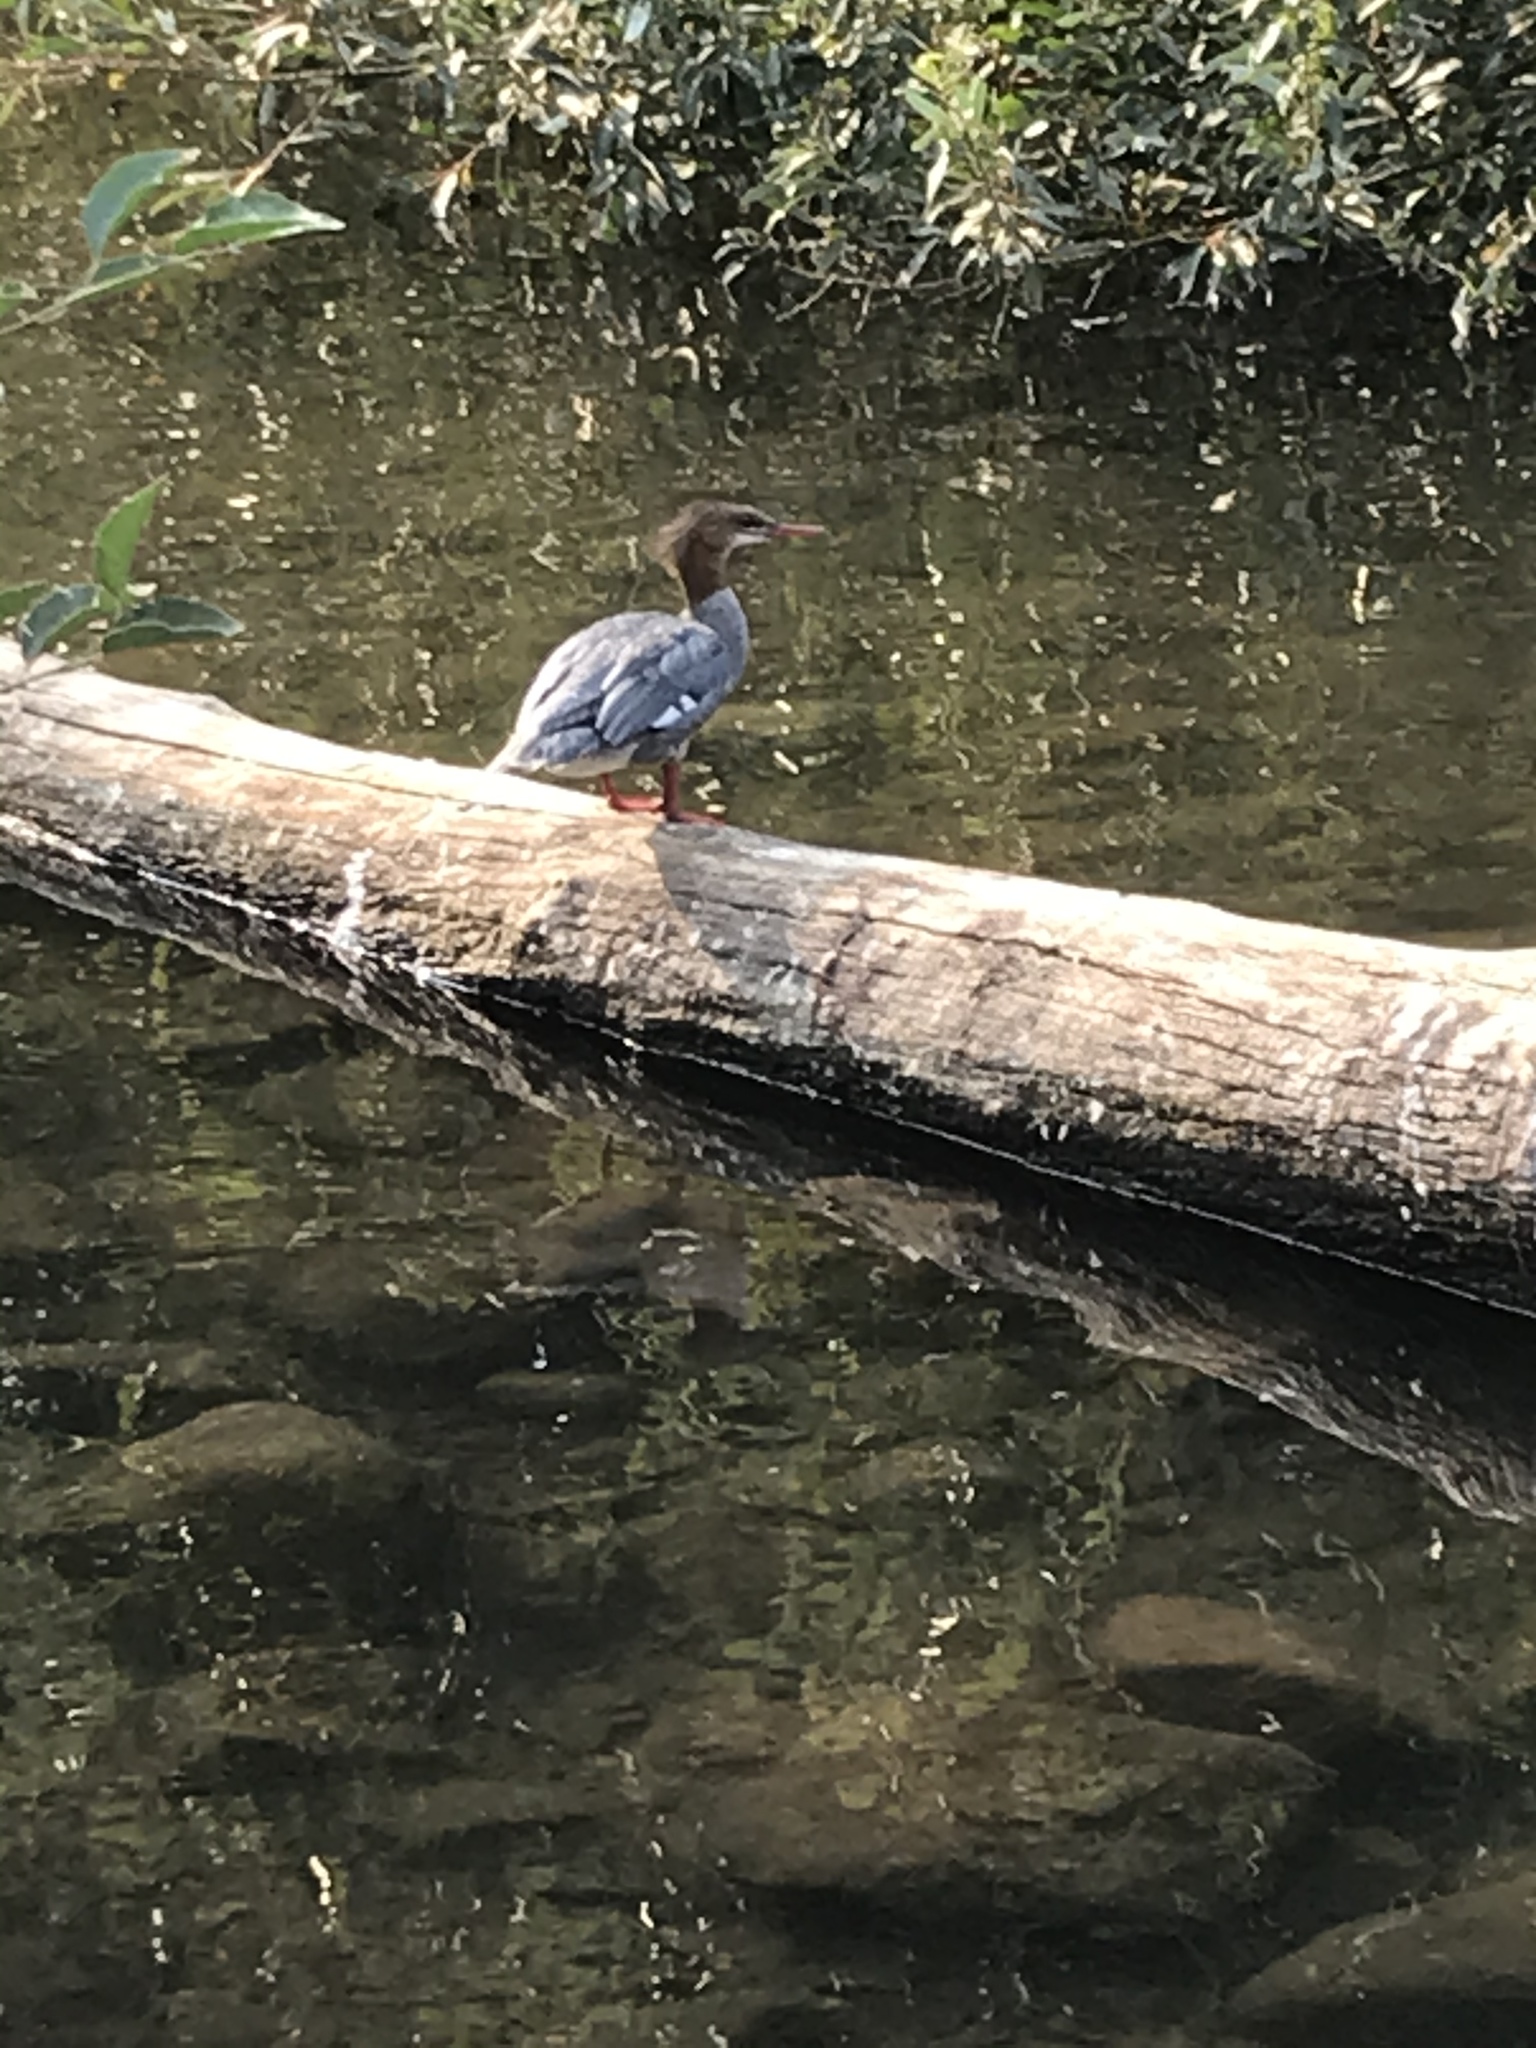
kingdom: Animalia
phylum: Chordata
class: Aves
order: Anseriformes
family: Anatidae
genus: Mergus
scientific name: Mergus merganser
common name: Common merganser
